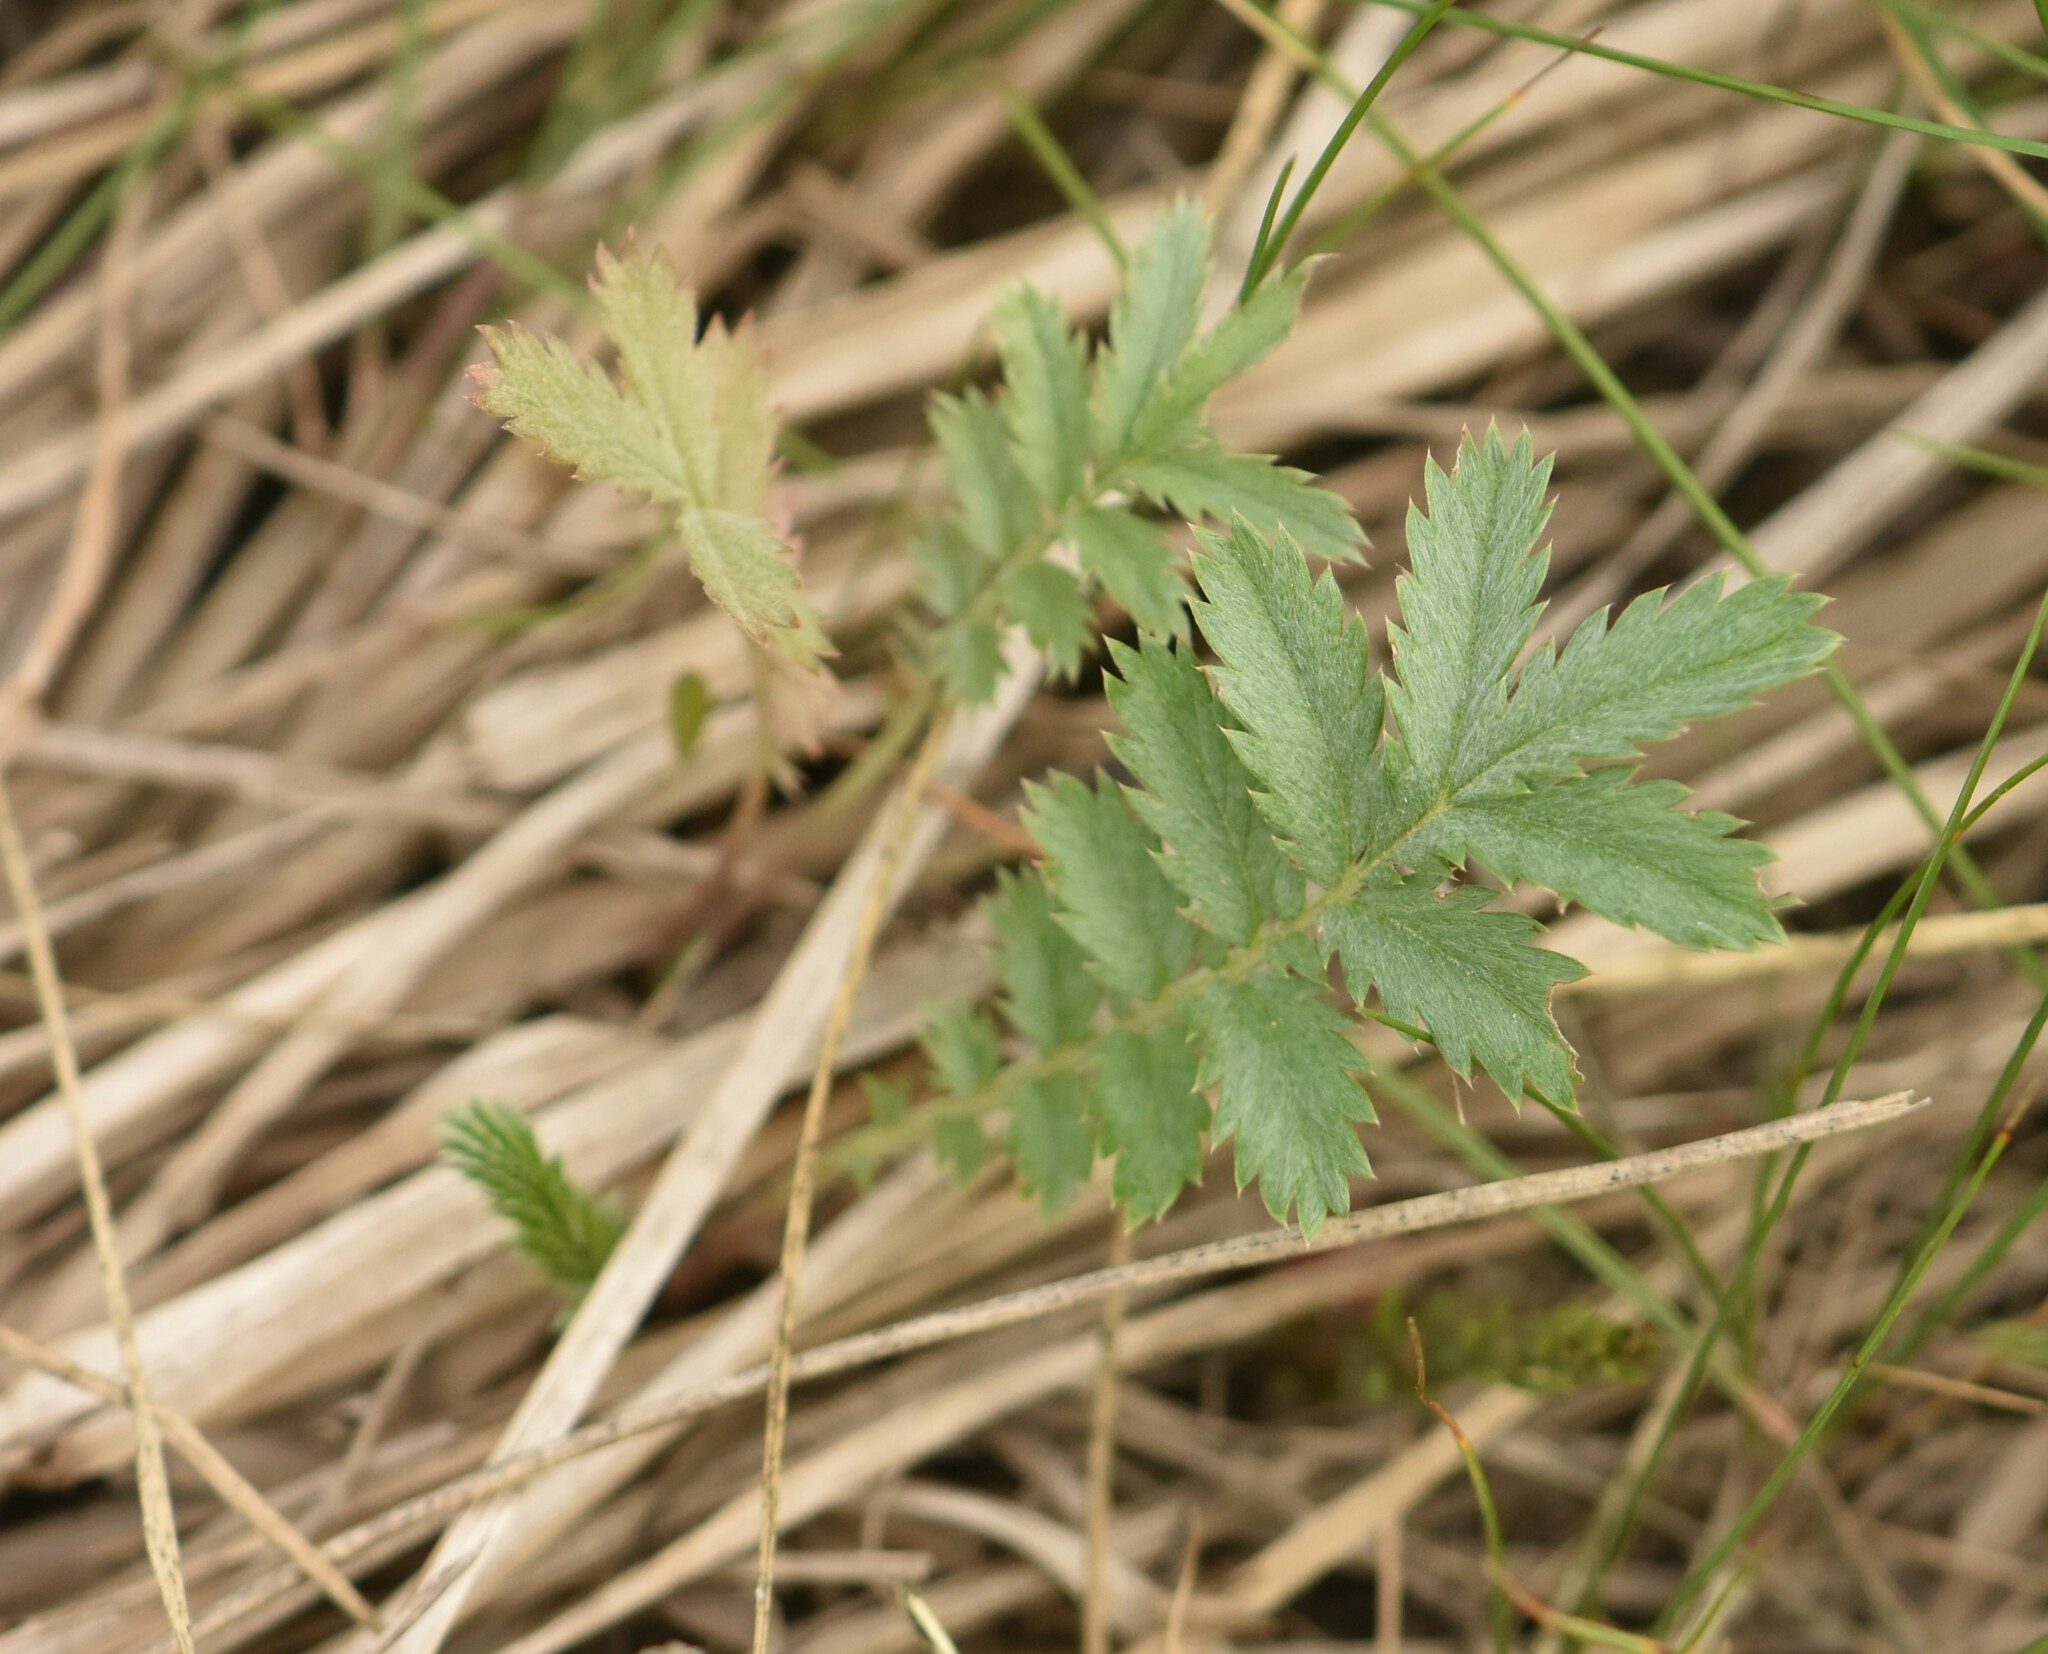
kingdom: Plantae
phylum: Tracheophyta
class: Magnoliopsida
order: Rosales
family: Rosaceae
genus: Argentina
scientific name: Argentina anserina
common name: Common silverweed
